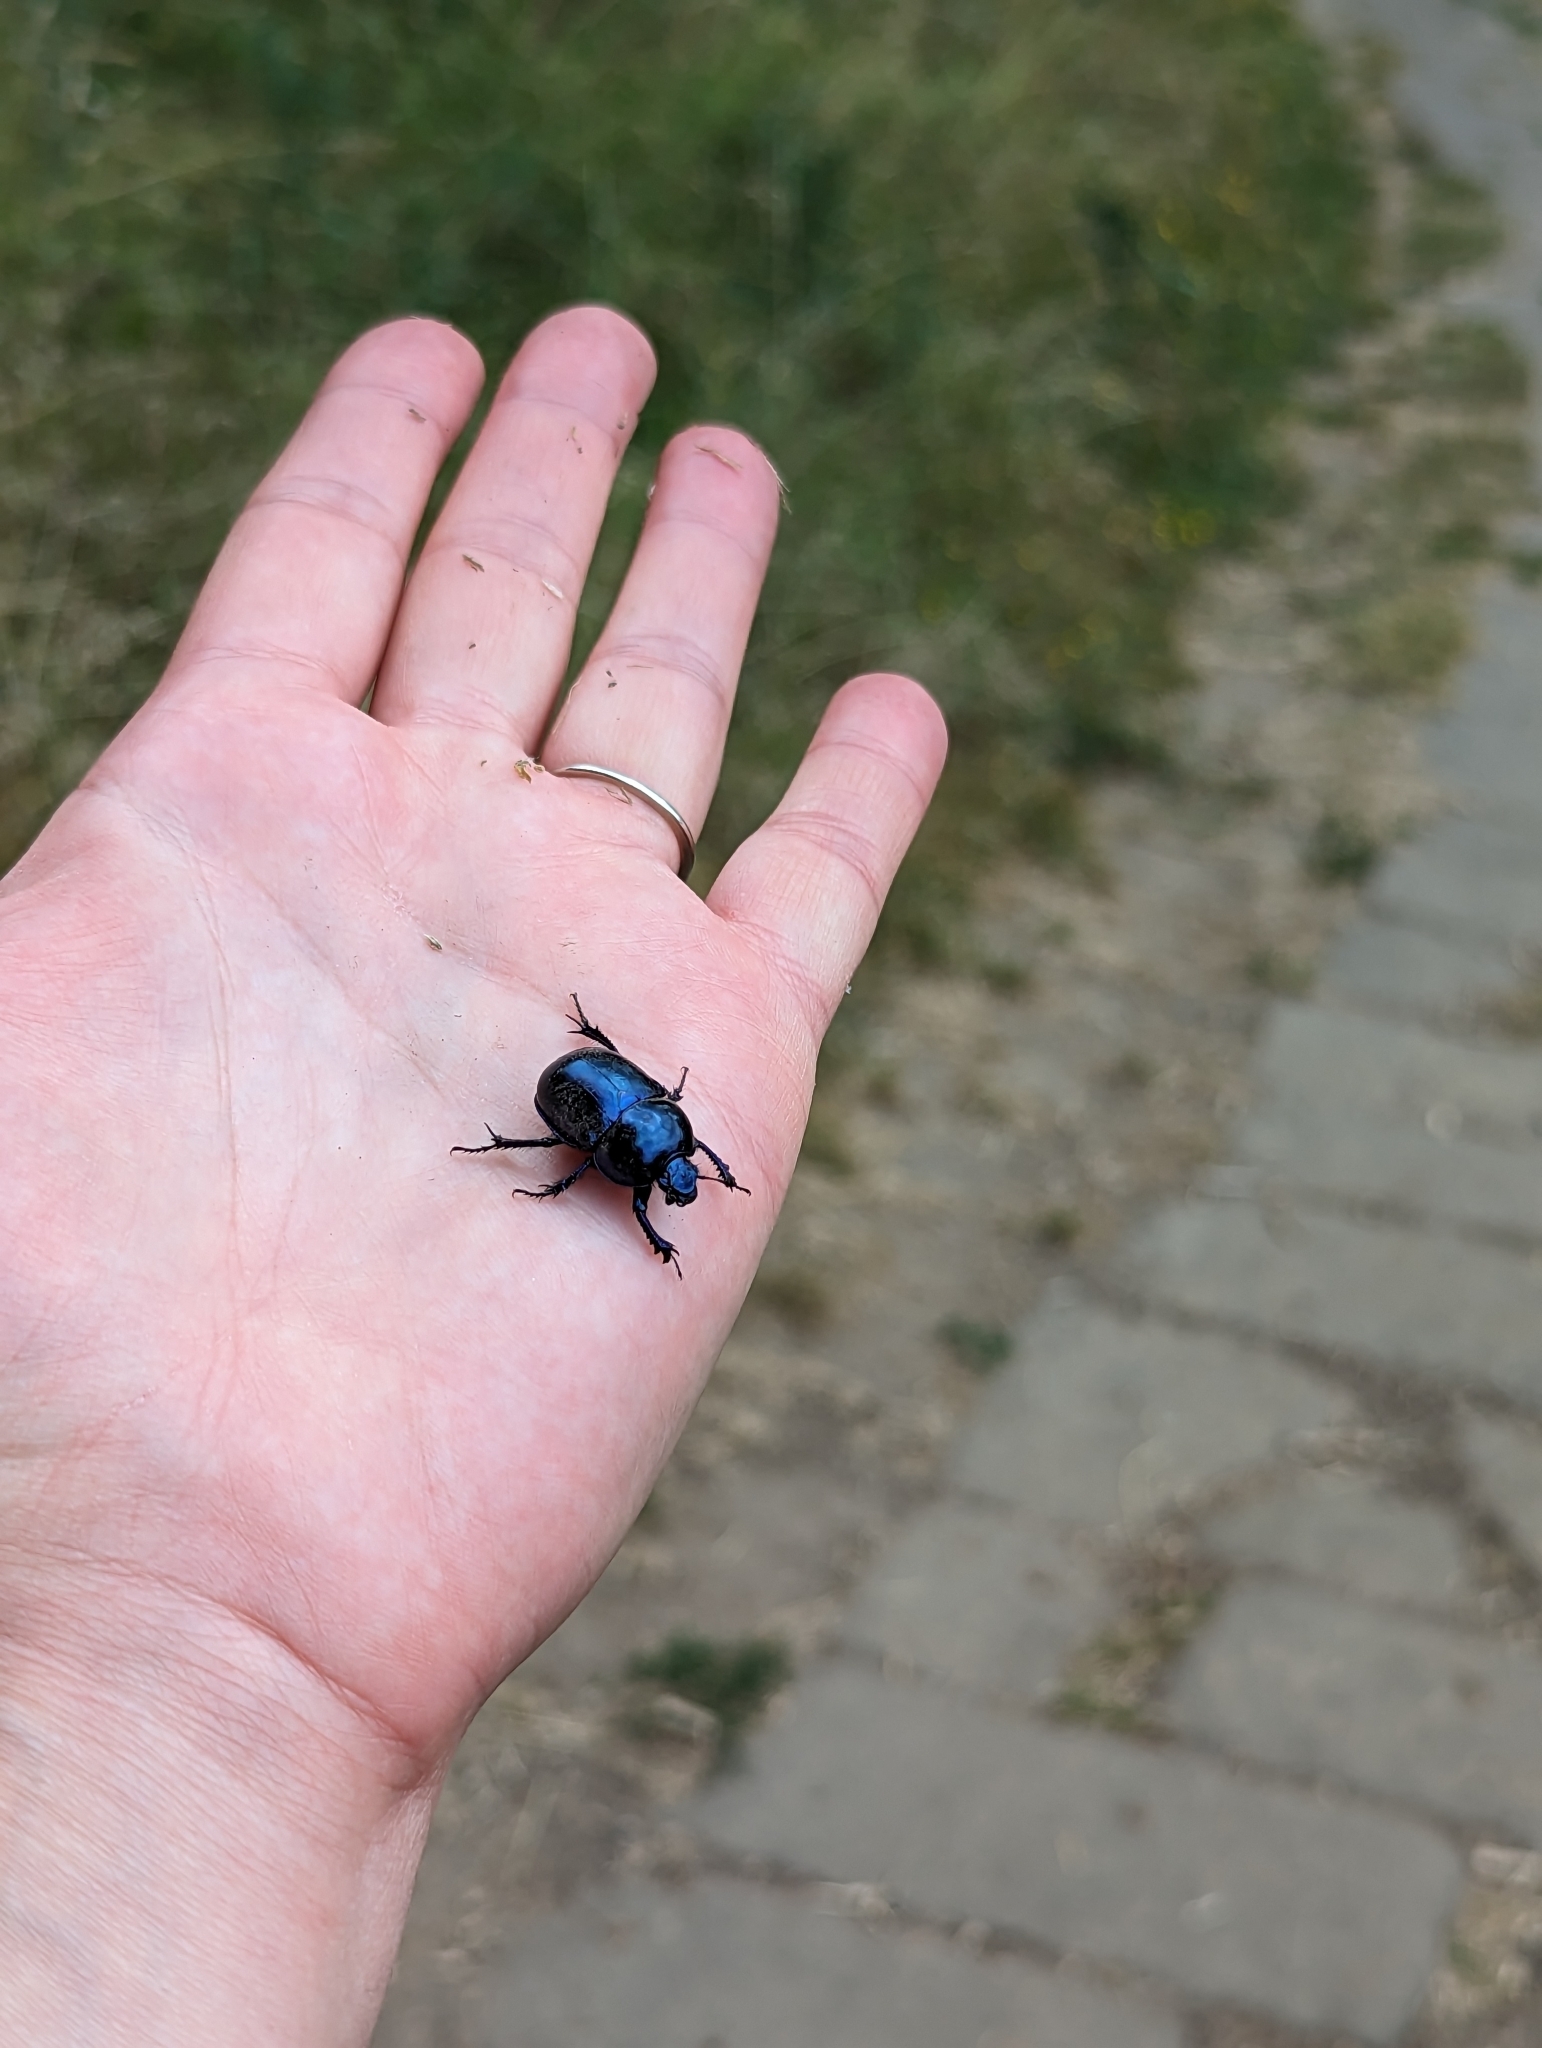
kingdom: Animalia
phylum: Arthropoda
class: Insecta
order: Coleoptera
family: Geotrupidae
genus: Trypocopris
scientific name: Trypocopris vernalis
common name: Spring dumbledor
